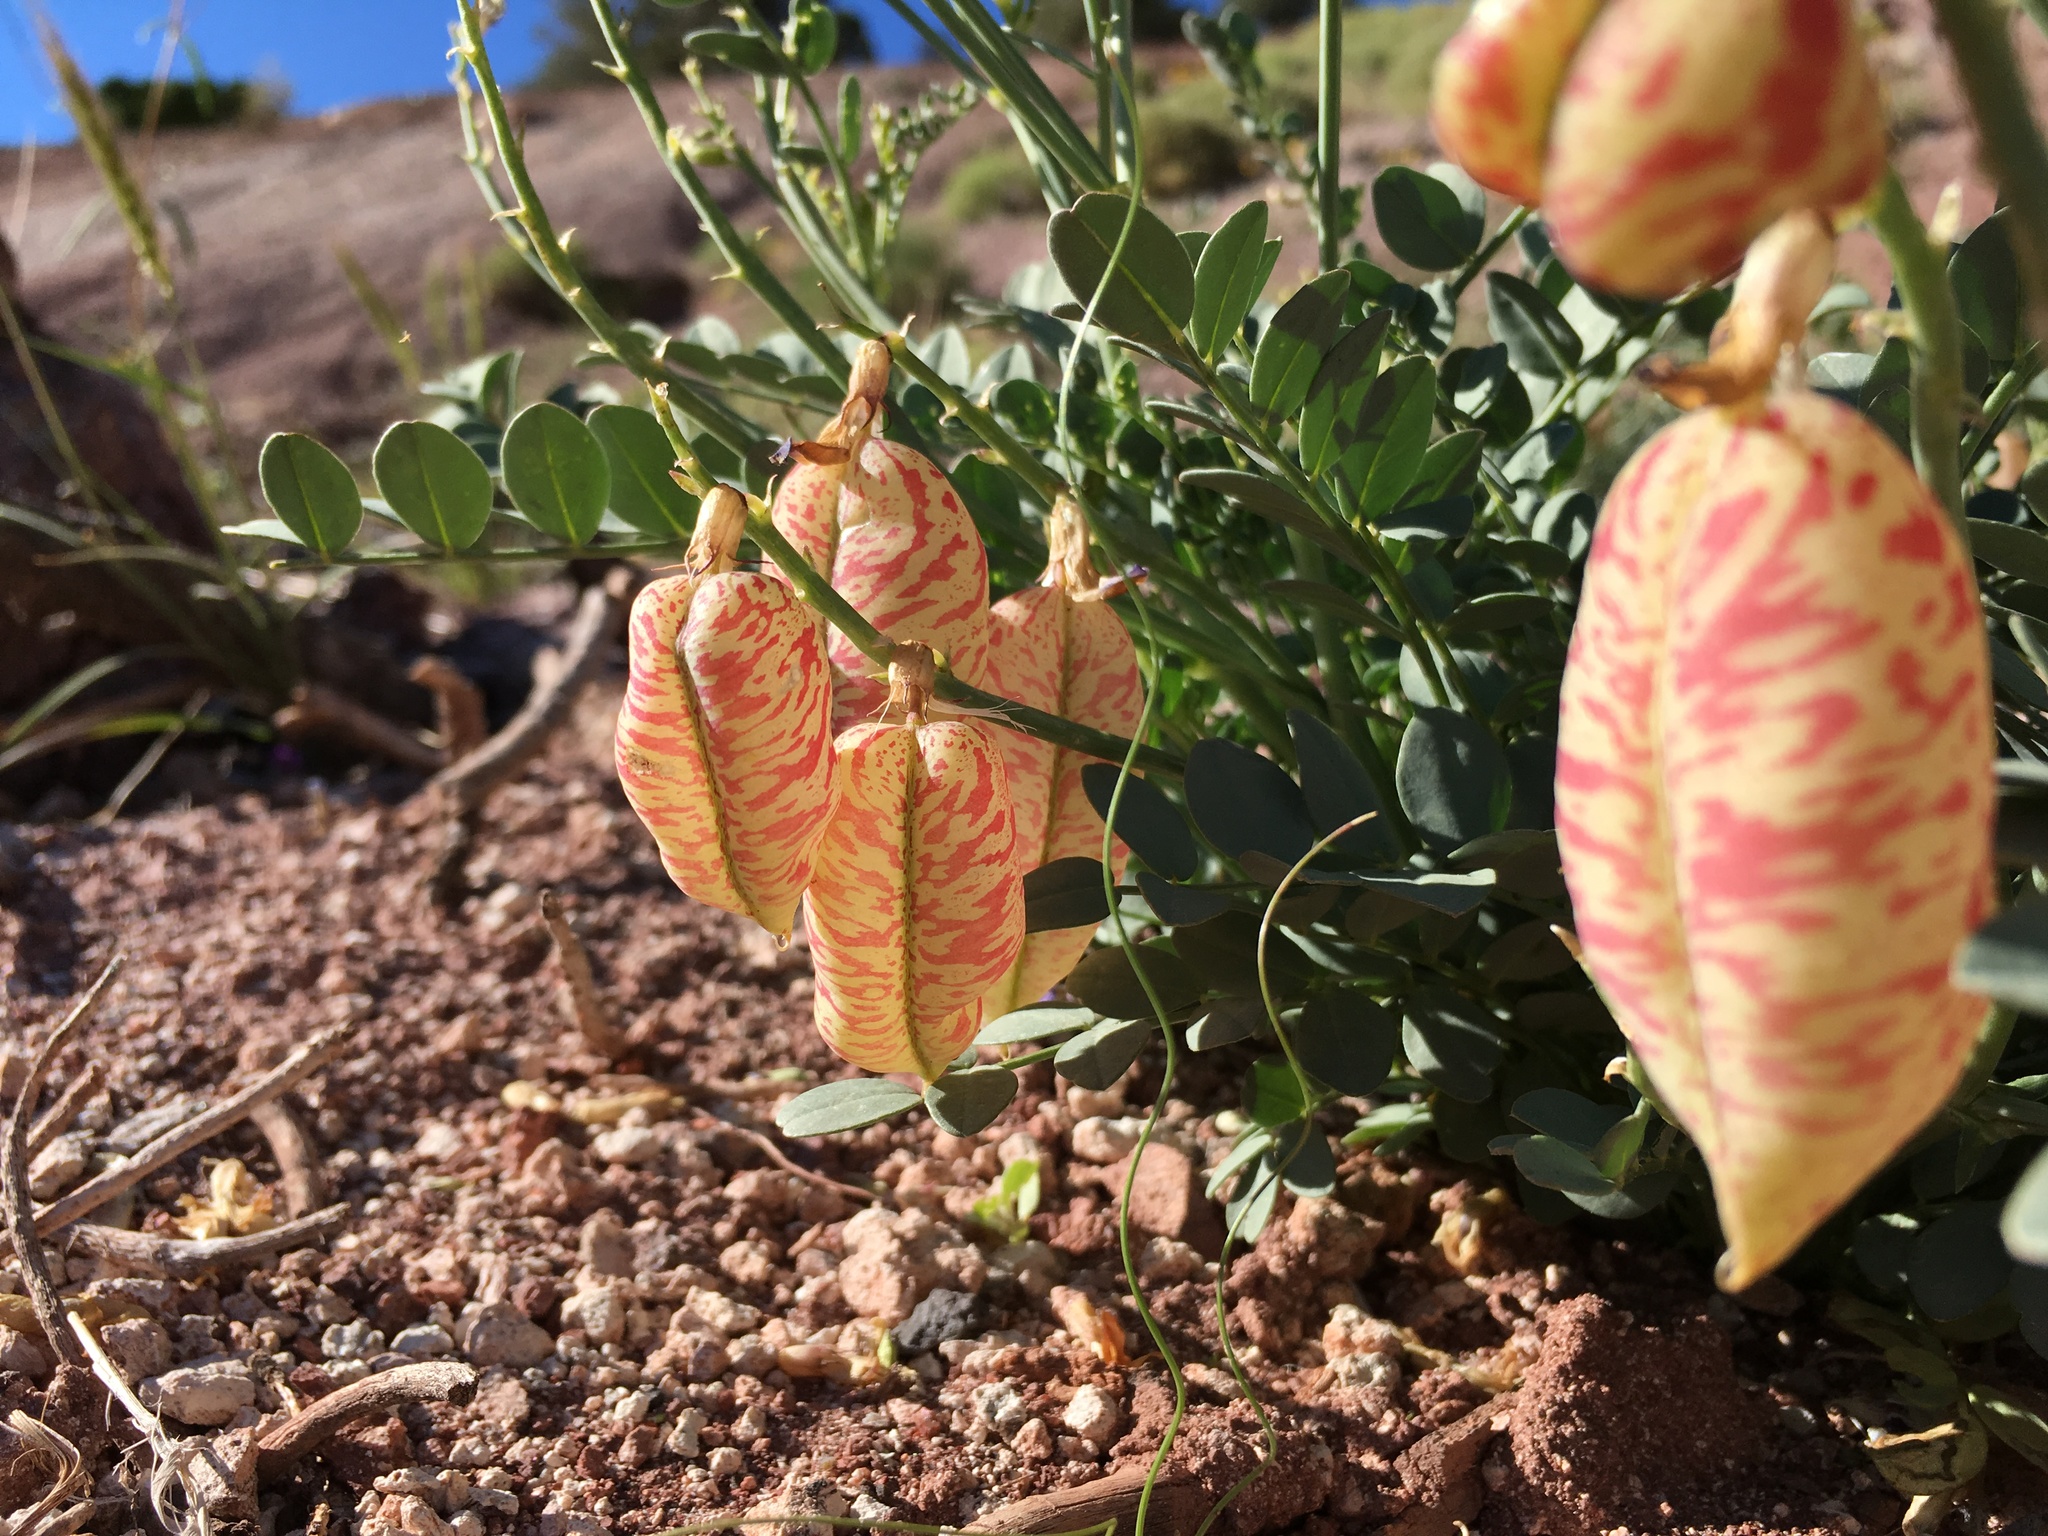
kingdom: Plantae
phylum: Tracheophyta
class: Magnoliopsida
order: Fabales
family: Fabaceae
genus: Astragalus
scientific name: Astragalus oophorus
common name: Egg milkvetch
